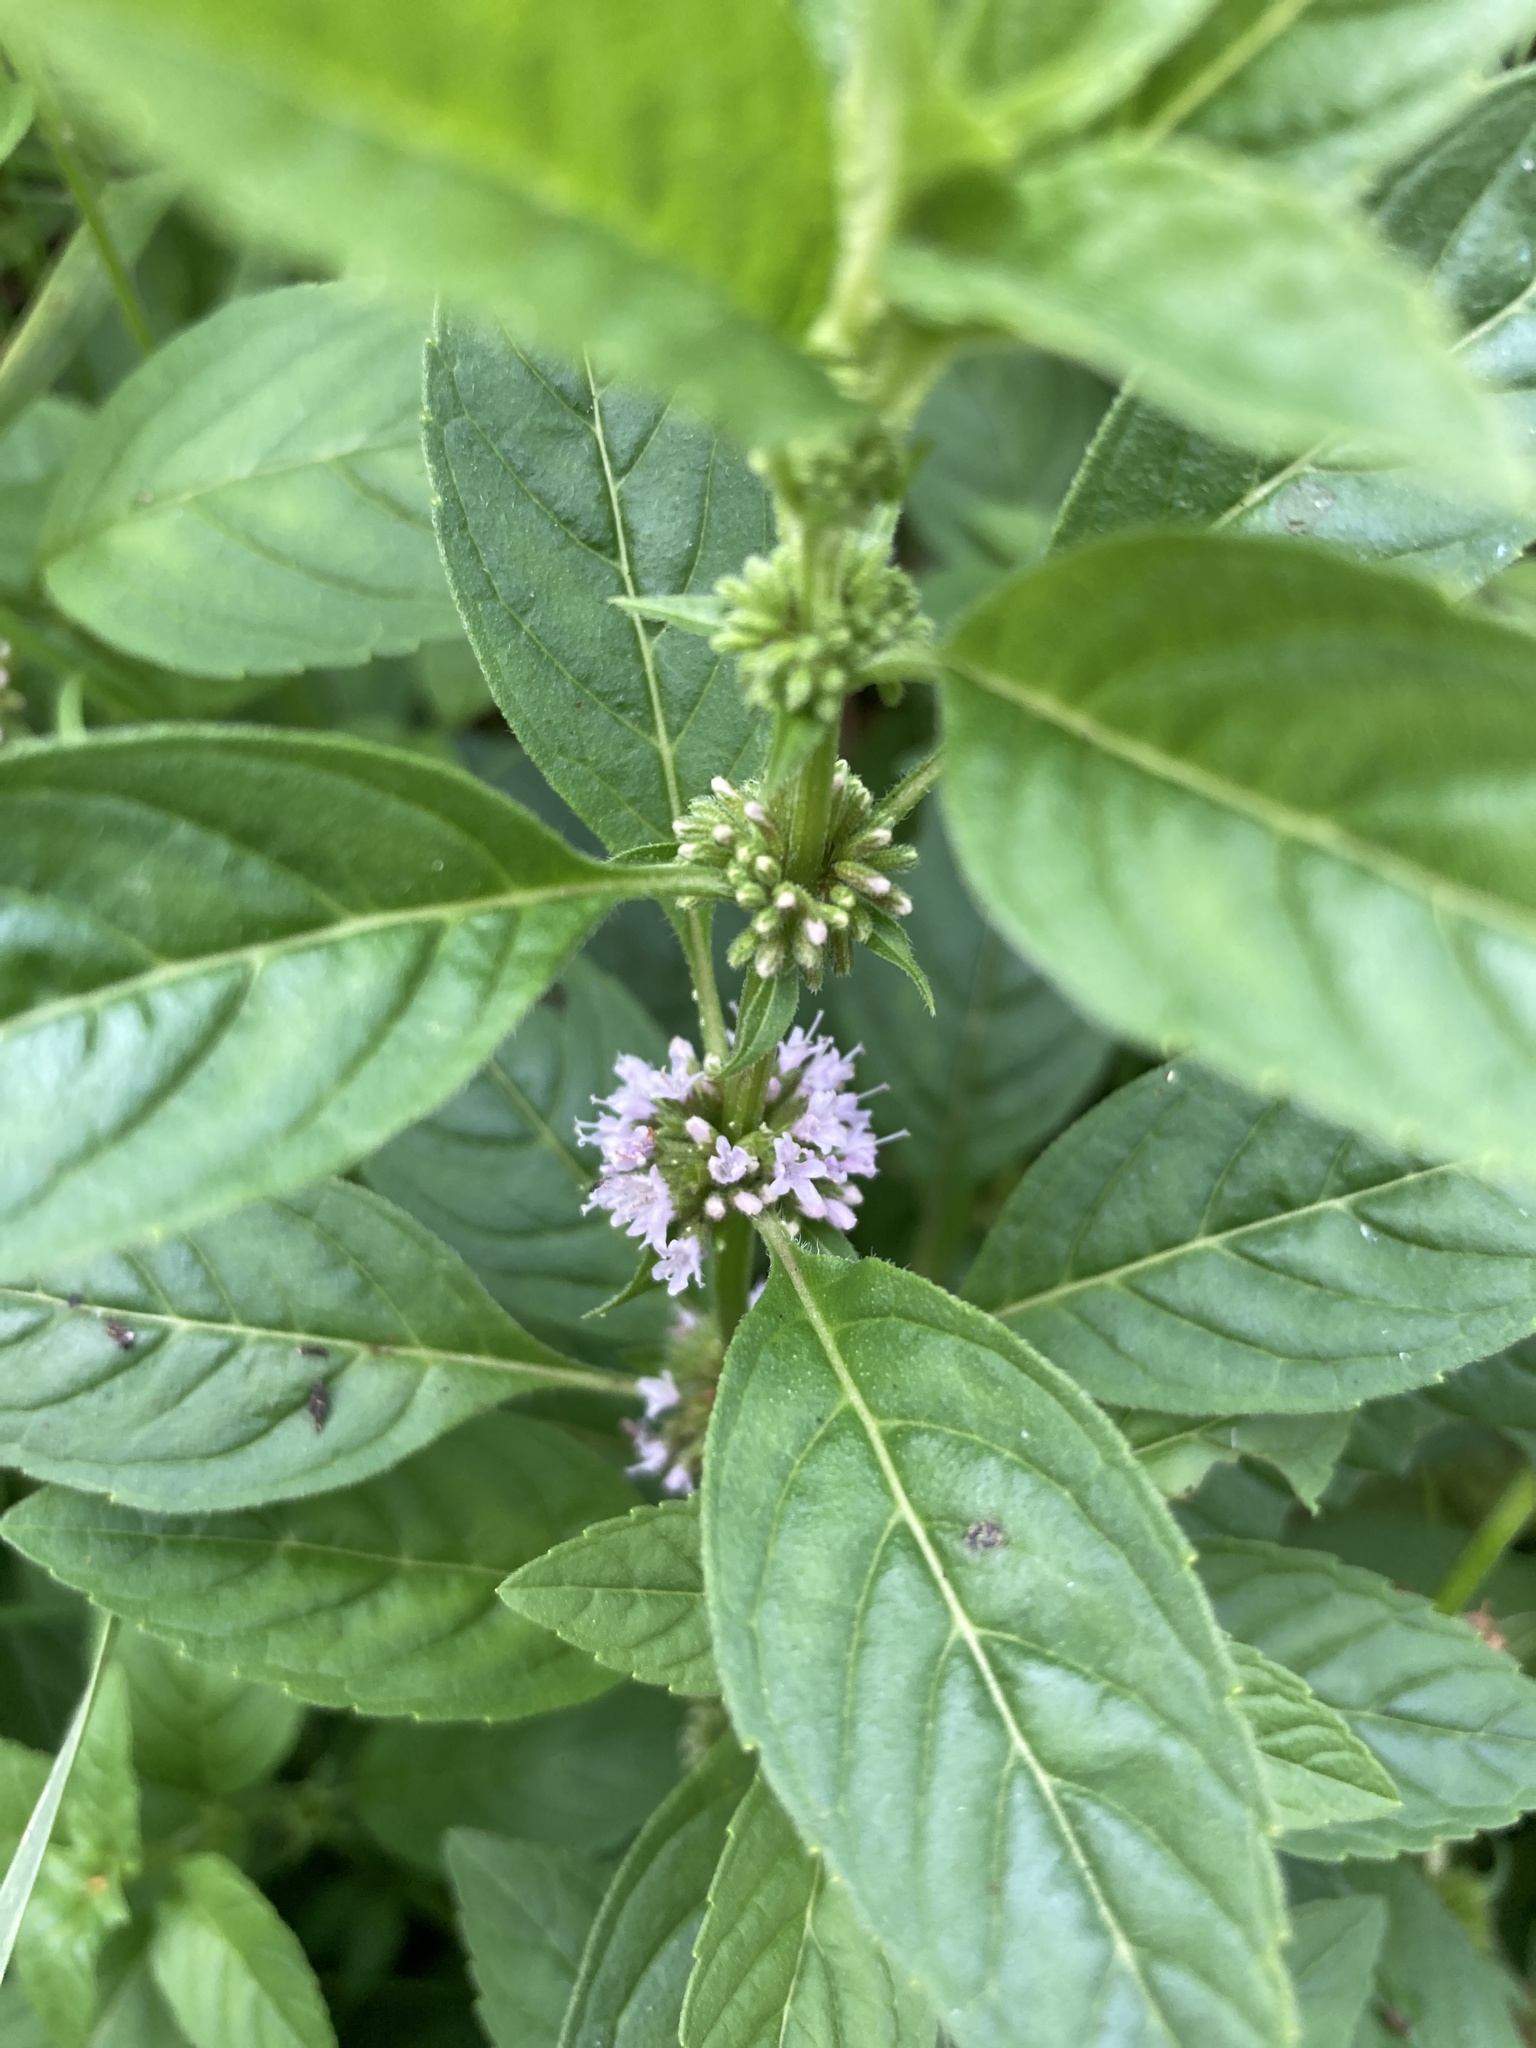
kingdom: Plantae
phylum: Tracheophyta
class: Magnoliopsida
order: Lamiales
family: Lamiaceae
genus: Mentha
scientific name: Mentha arvensis
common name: Corn mint
